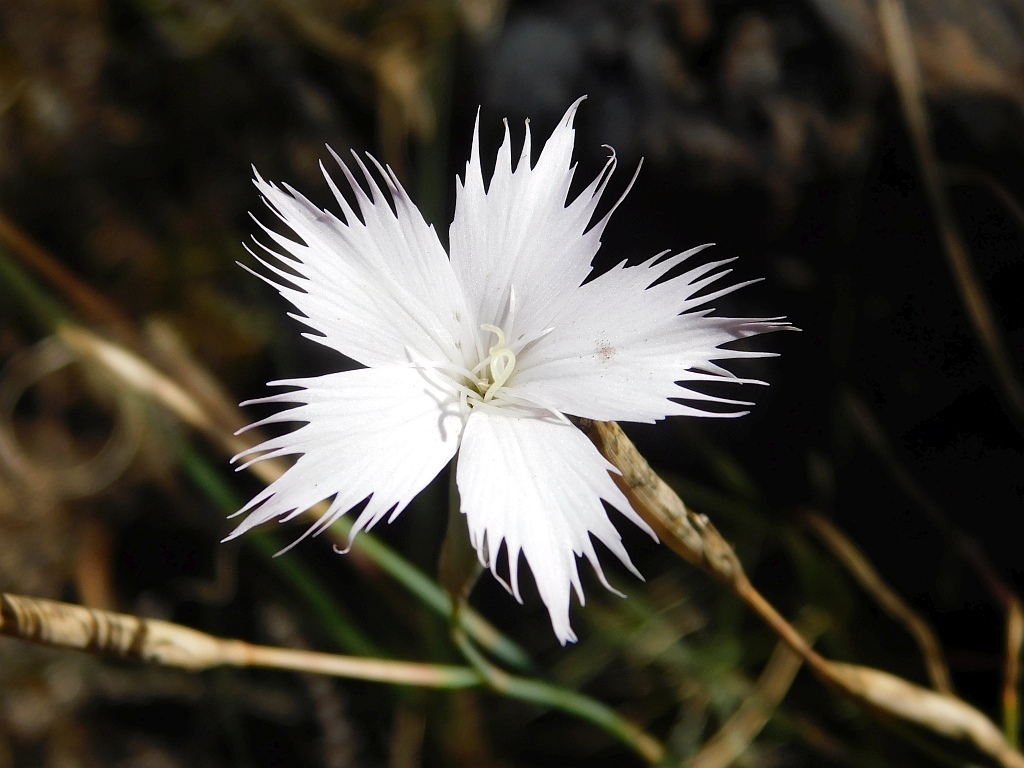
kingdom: Plantae
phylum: Tracheophyta
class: Magnoliopsida
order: Caryophyllales
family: Caryophyllaceae
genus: Dianthus
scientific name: Dianthus thunbergii
